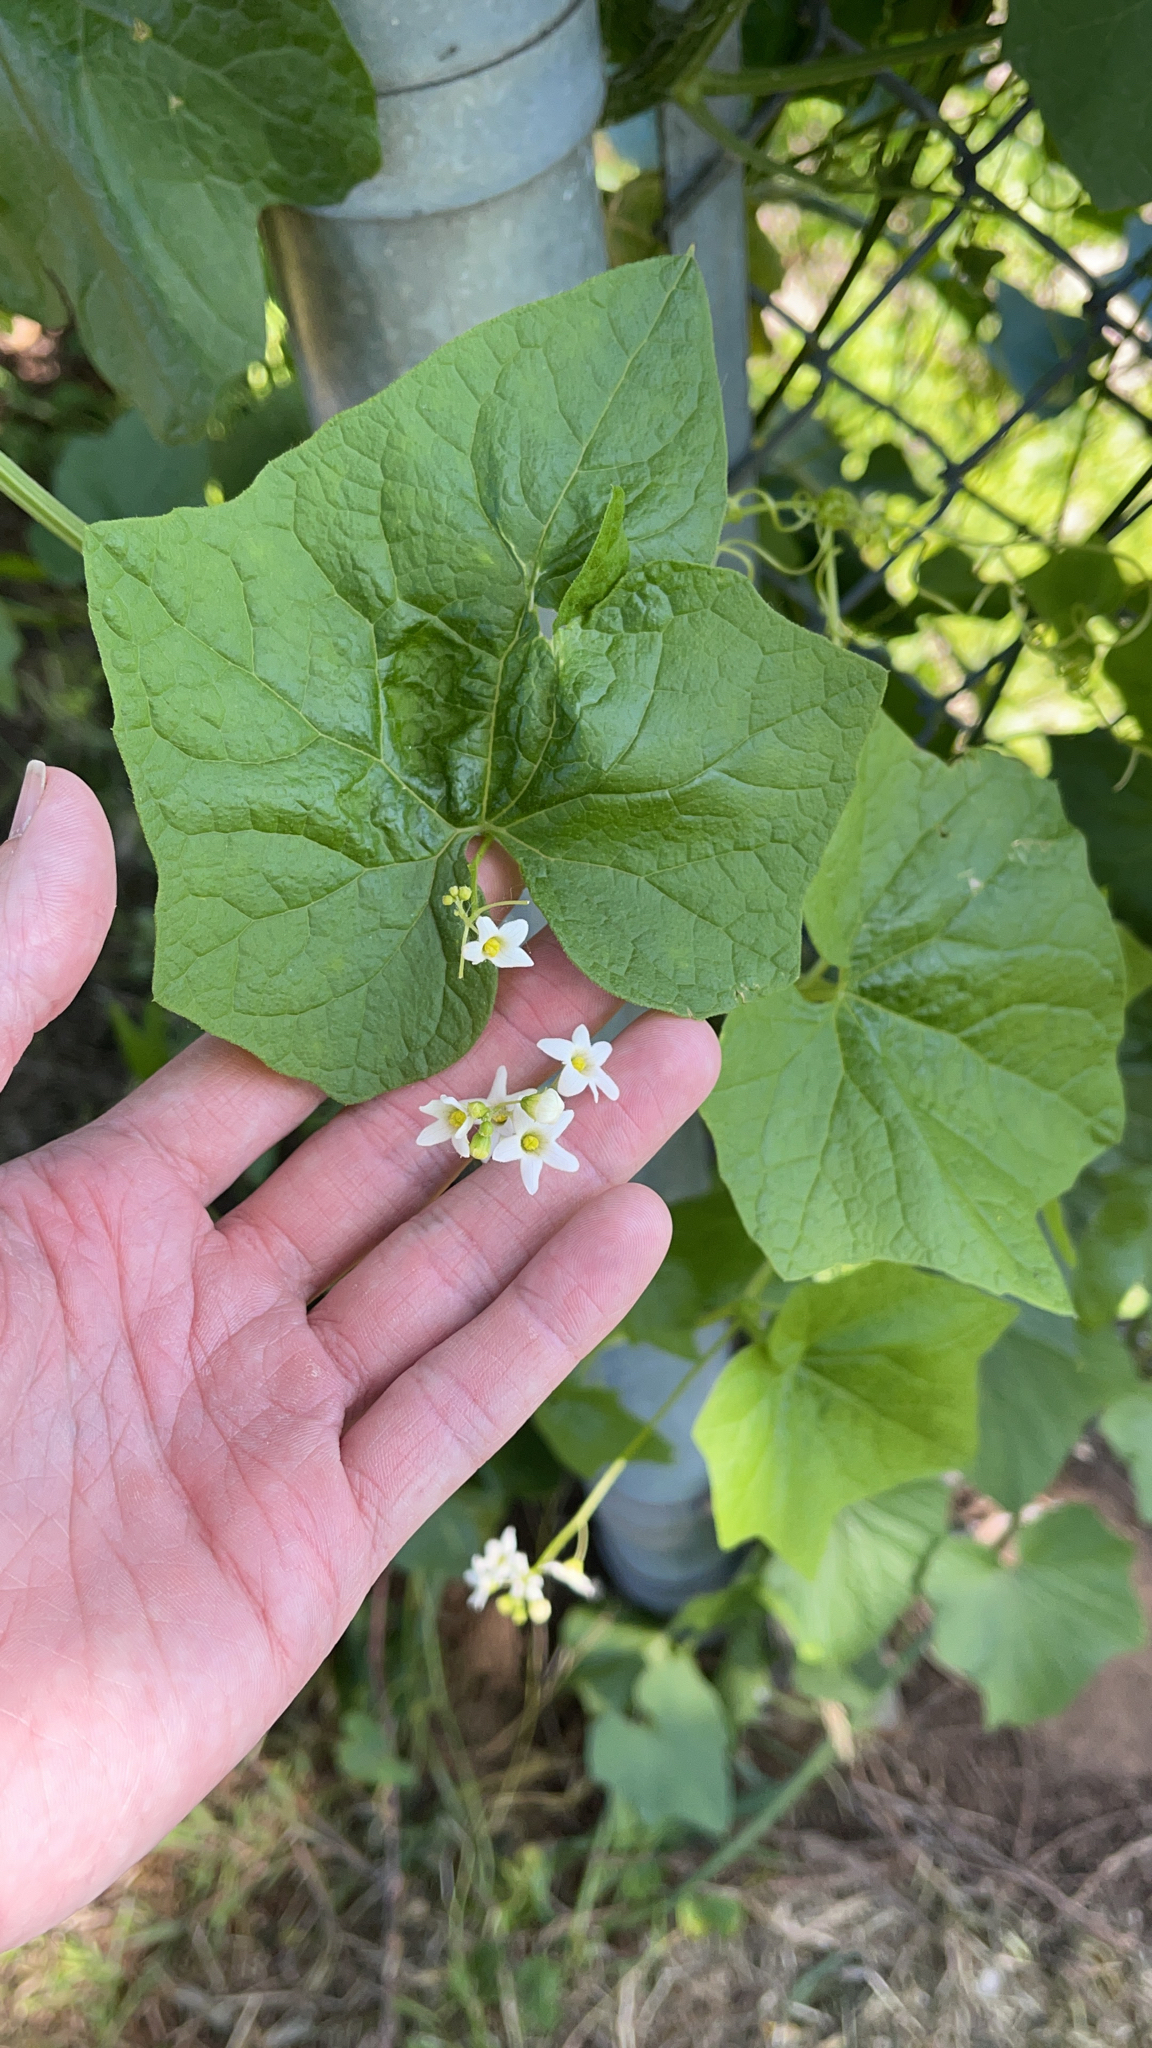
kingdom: Plantae
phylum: Tracheophyta
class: Magnoliopsida
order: Cucurbitales
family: Cucurbitaceae
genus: Marah
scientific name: Marah oregana
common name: Coastal manroot
